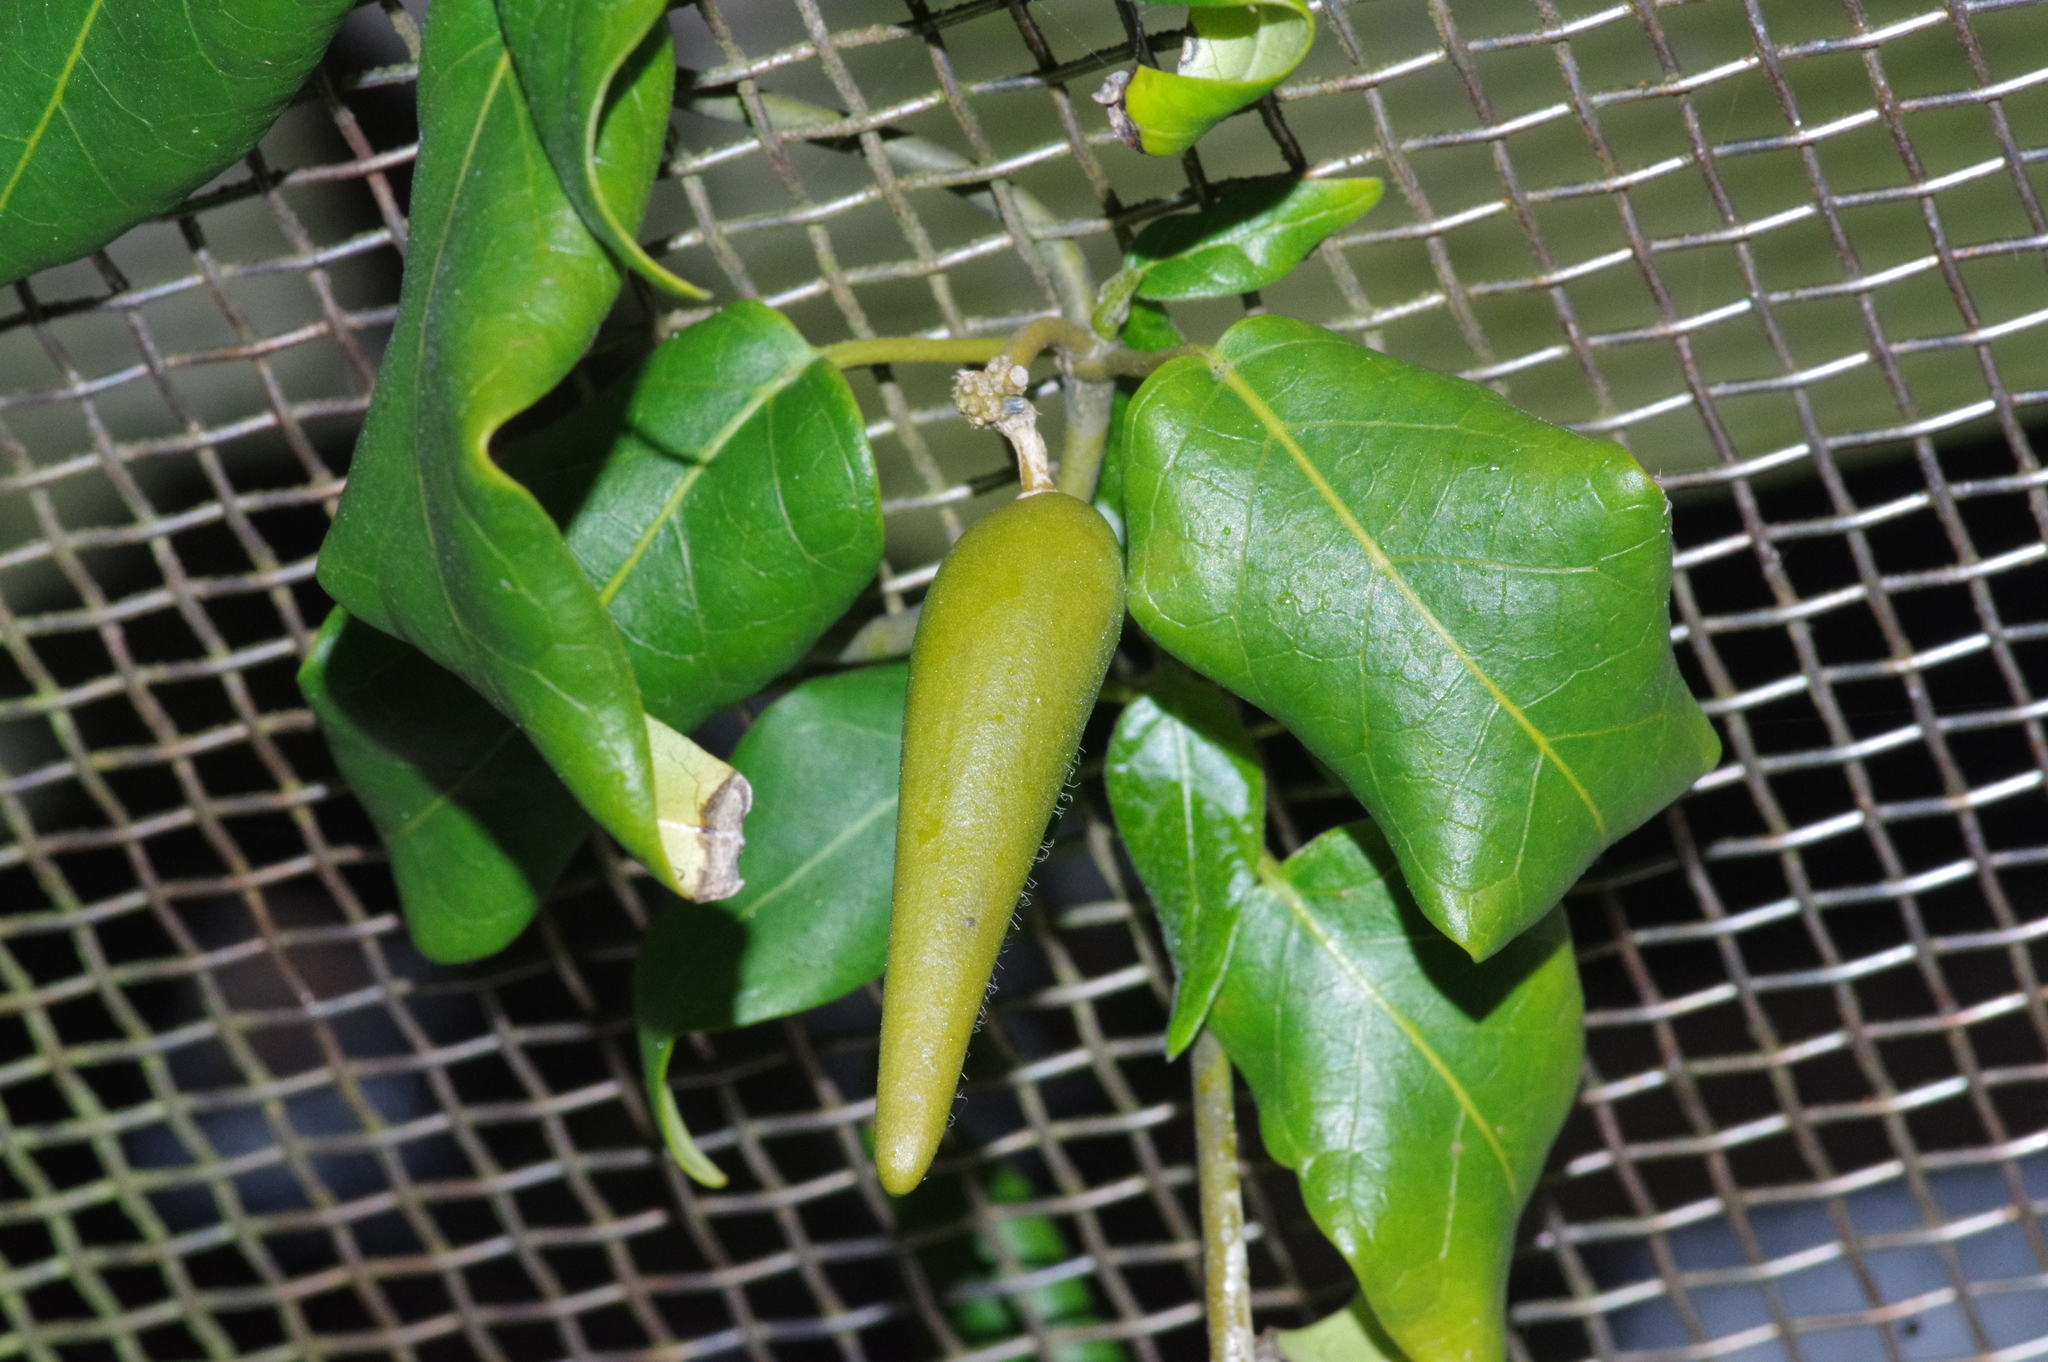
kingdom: Plantae
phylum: Tracheophyta
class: Magnoliopsida
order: Gentianales
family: Apocynaceae
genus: Marsdenia
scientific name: Marsdenia tinctoria
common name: Climbing-indigo
